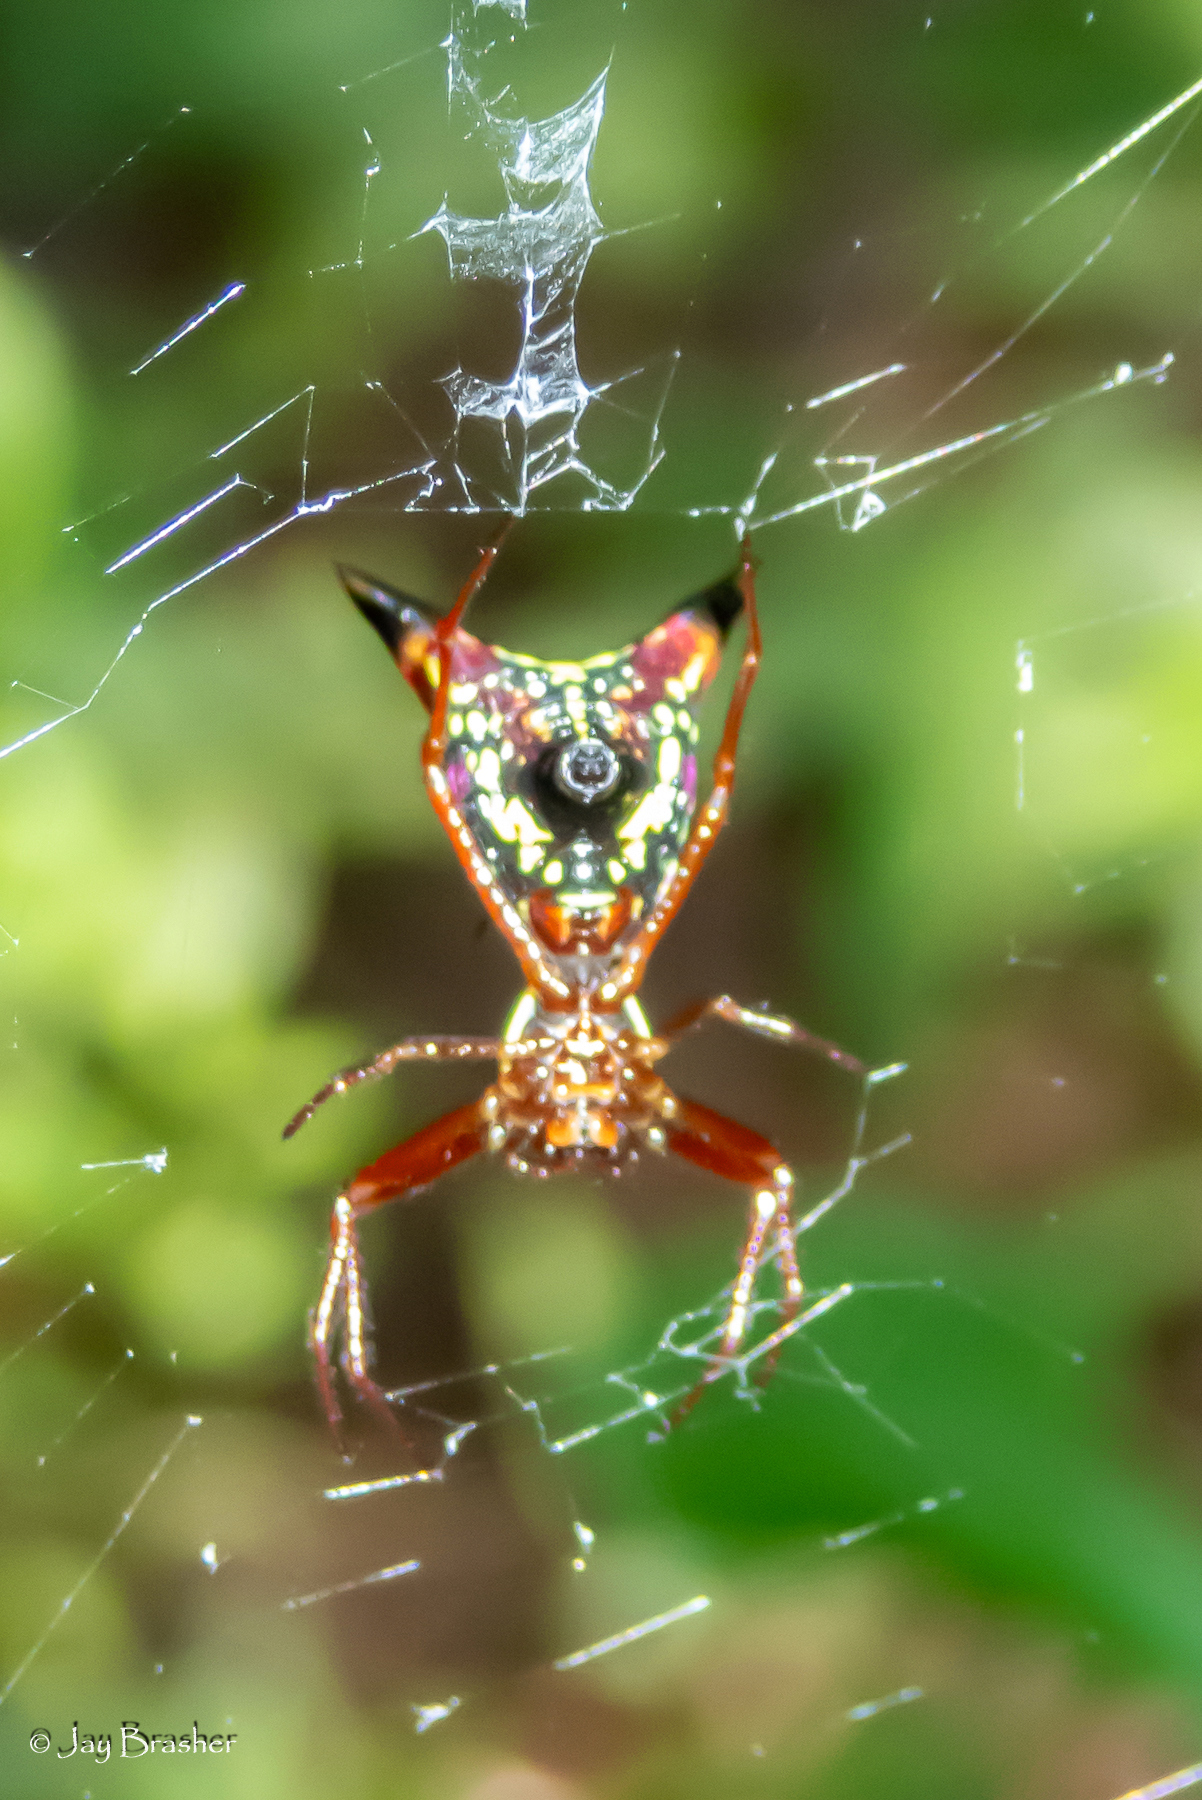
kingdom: Animalia
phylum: Arthropoda
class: Arachnida
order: Araneae
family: Araneidae
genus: Micrathena
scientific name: Micrathena sagittata
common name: Orb weavers
